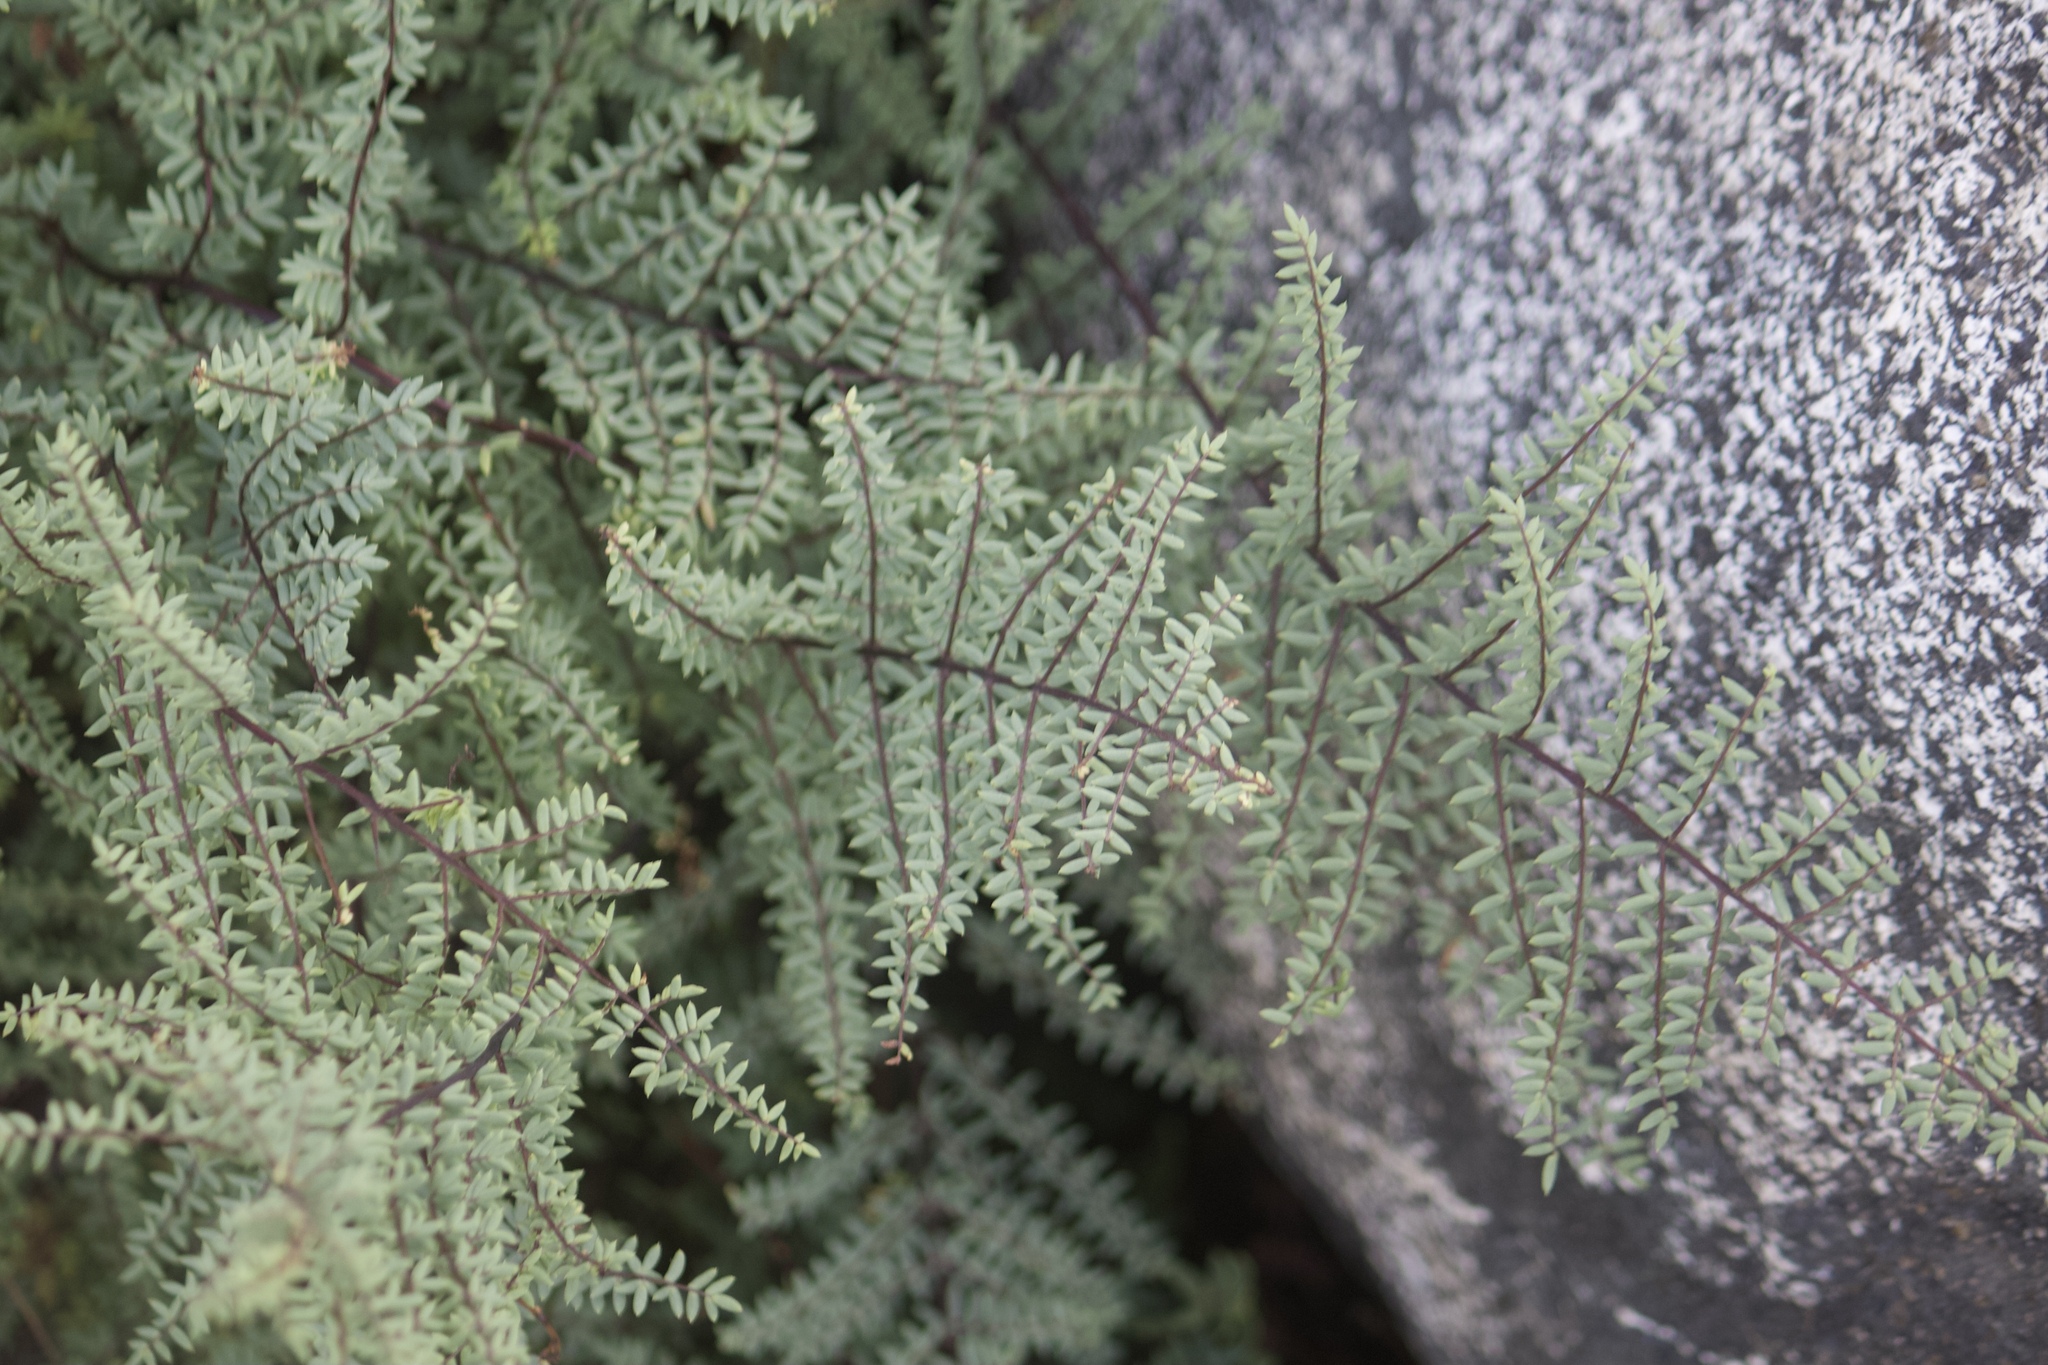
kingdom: Plantae
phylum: Tracheophyta
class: Polypodiopsida
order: Polypodiales
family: Pteridaceae
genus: Pellaea
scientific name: Pellaea mucronata
